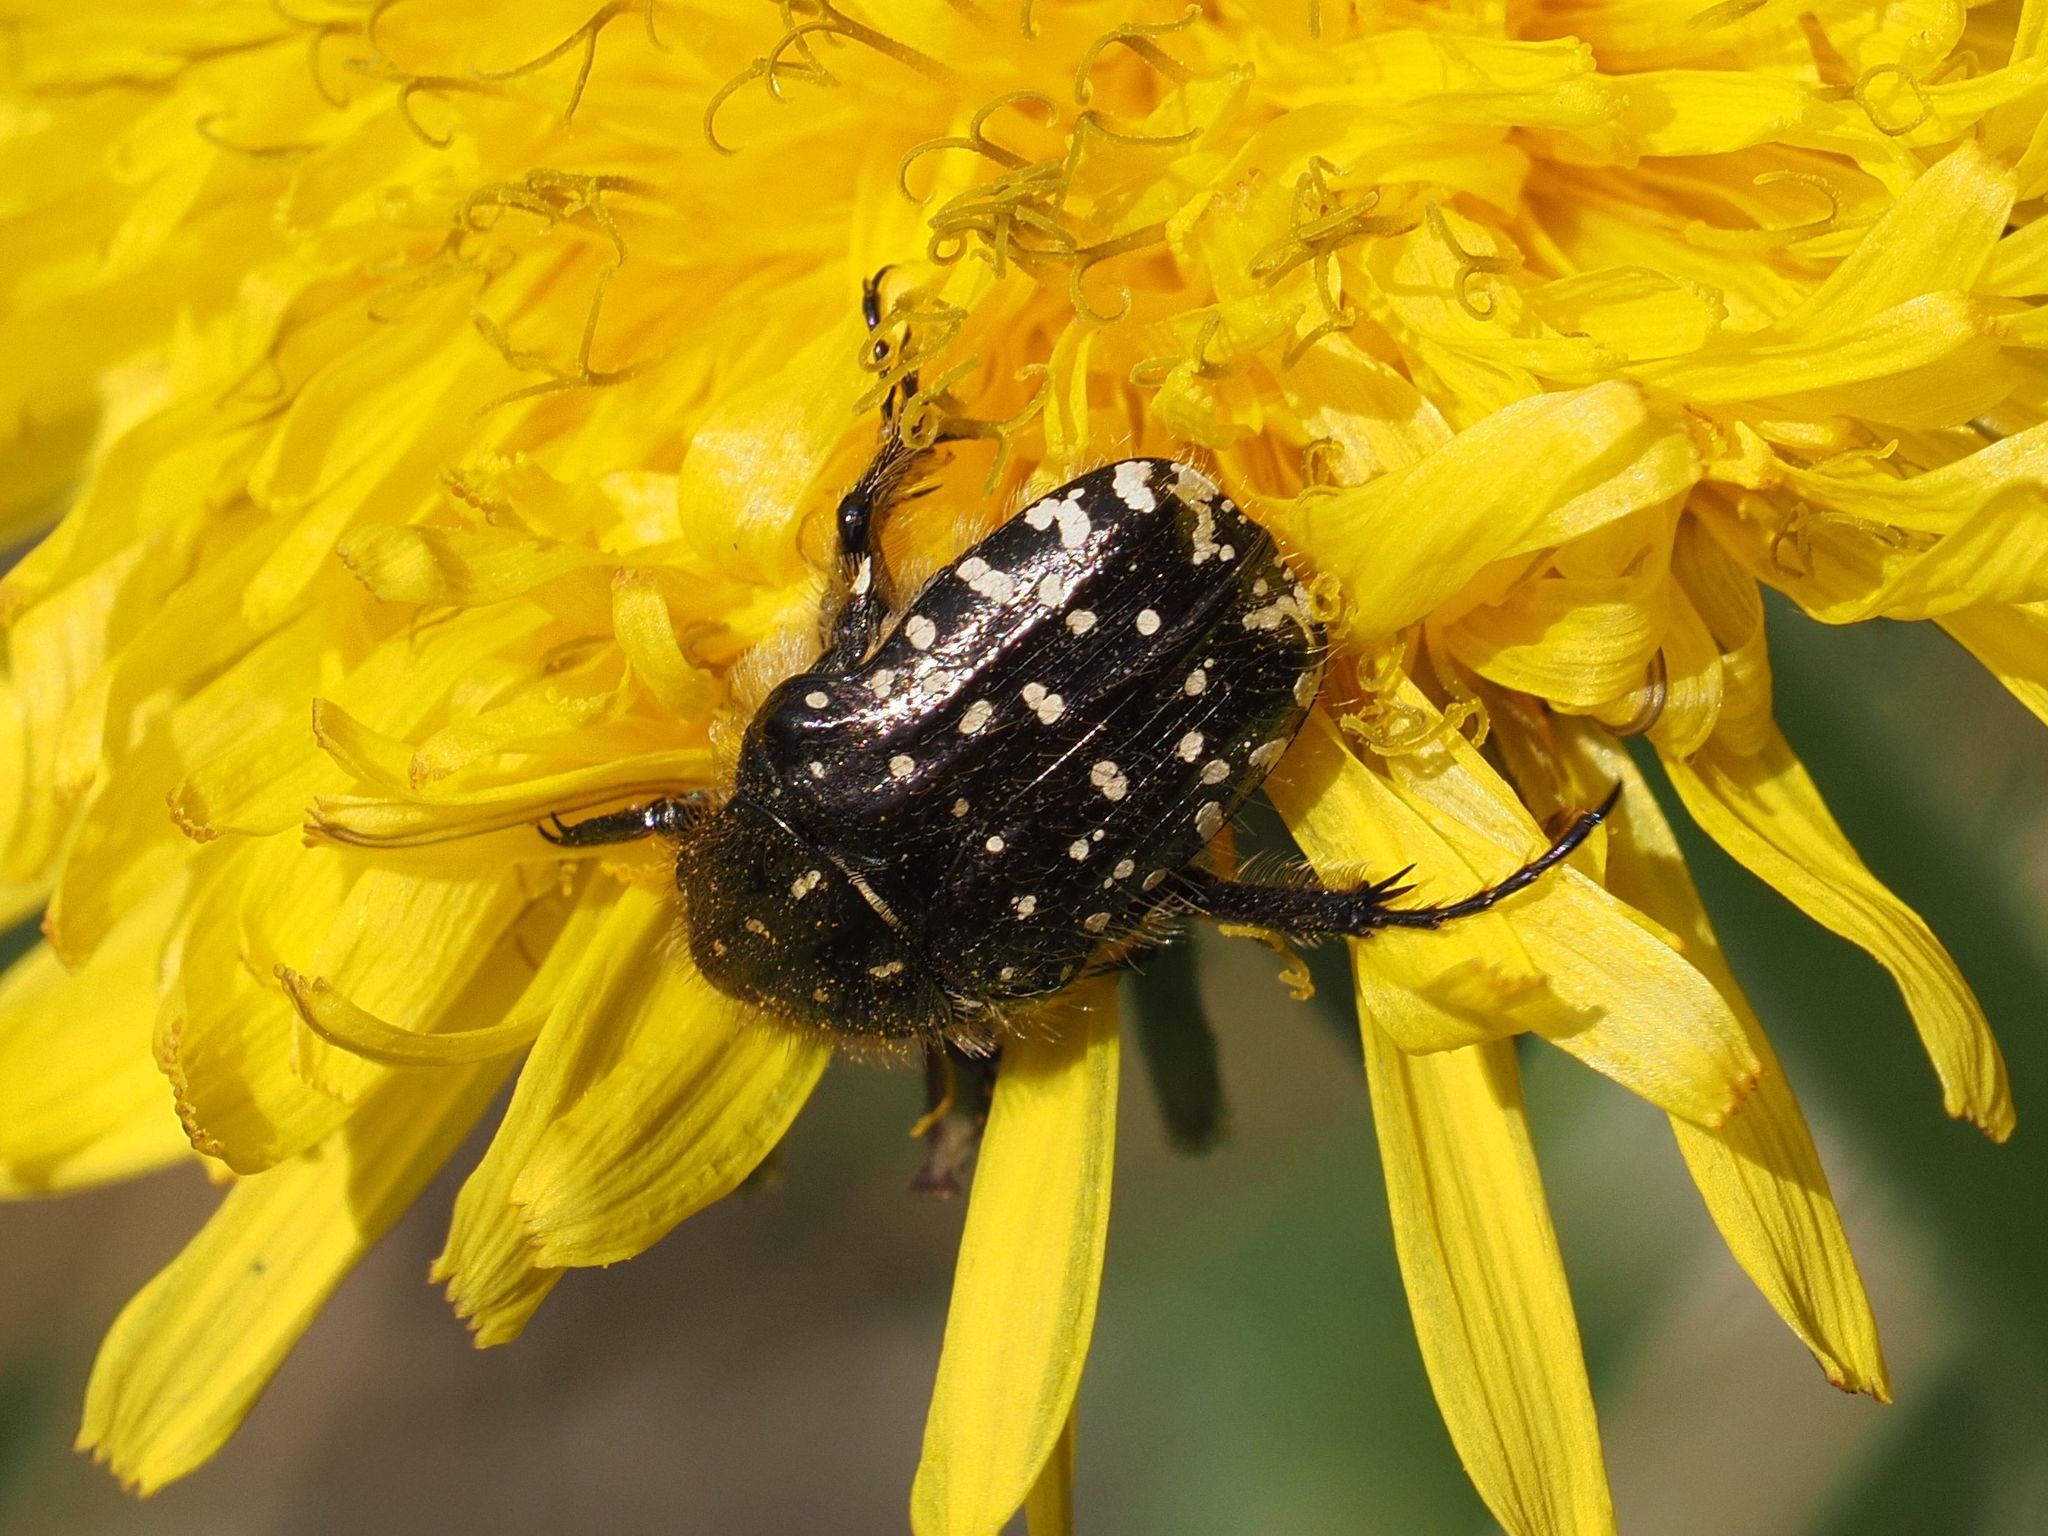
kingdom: Animalia
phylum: Arthropoda
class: Insecta
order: Coleoptera
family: Scarabaeidae
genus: Oxythyrea
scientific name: Oxythyrea funesta
